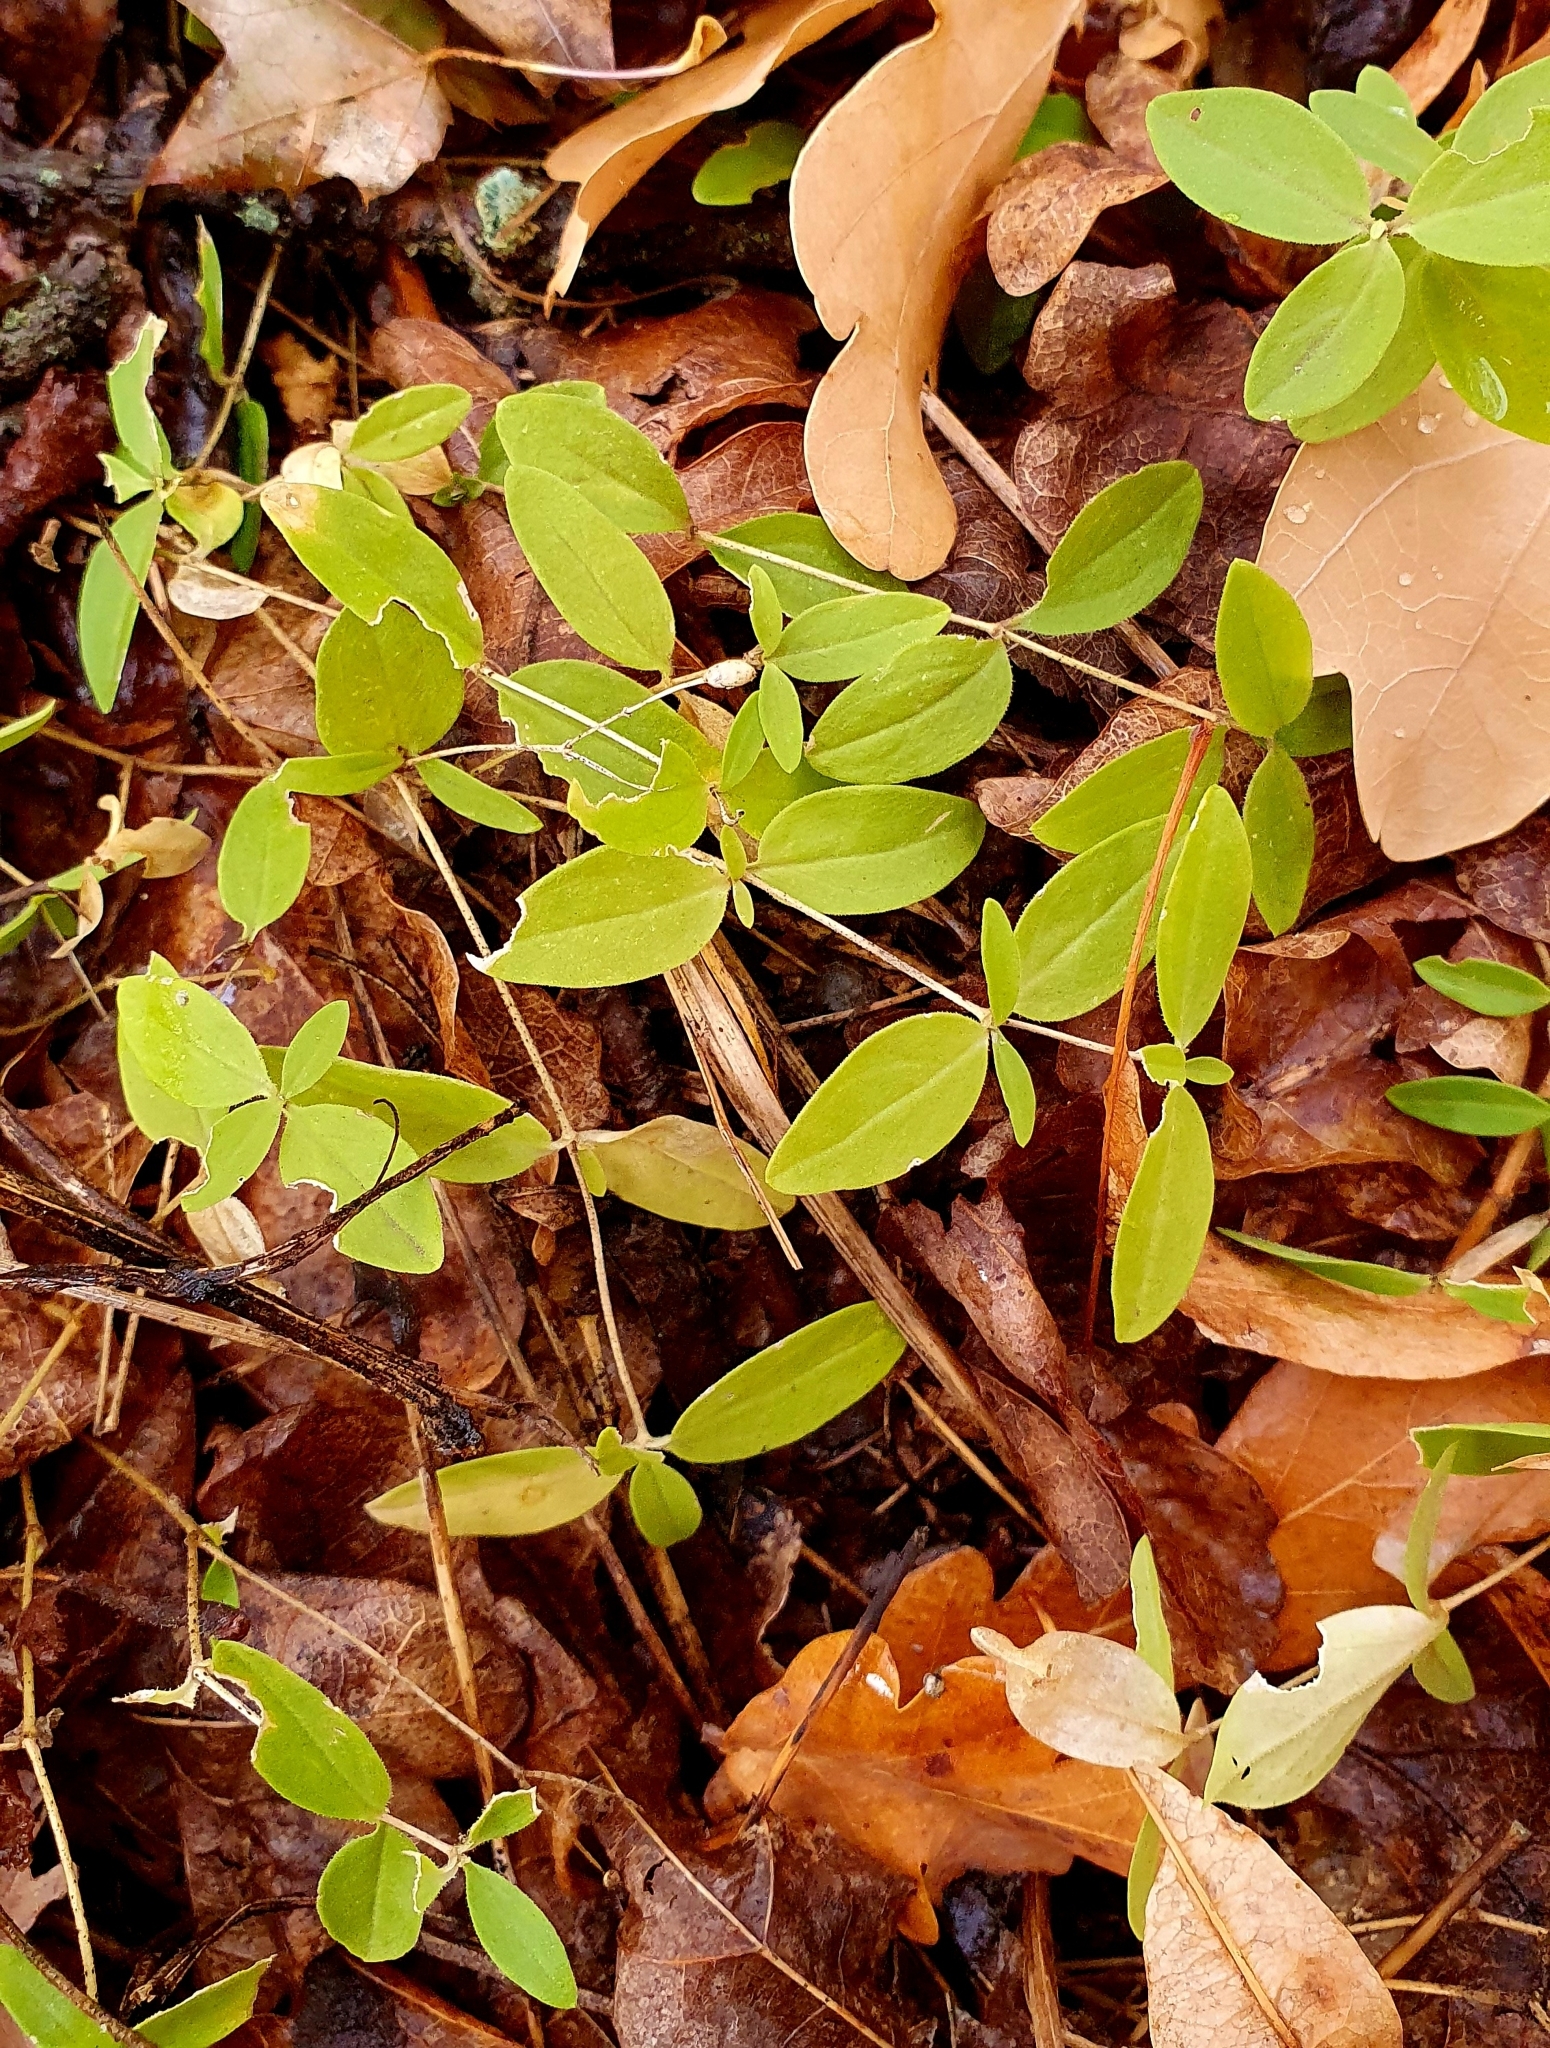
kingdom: Plantae
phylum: Tracheophyta
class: Magnoliopsida
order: Caryophyllales
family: Caryophyllaceae
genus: Moehringia
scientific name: Moehringia lateriflora
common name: Blunt-leaved sandwort
